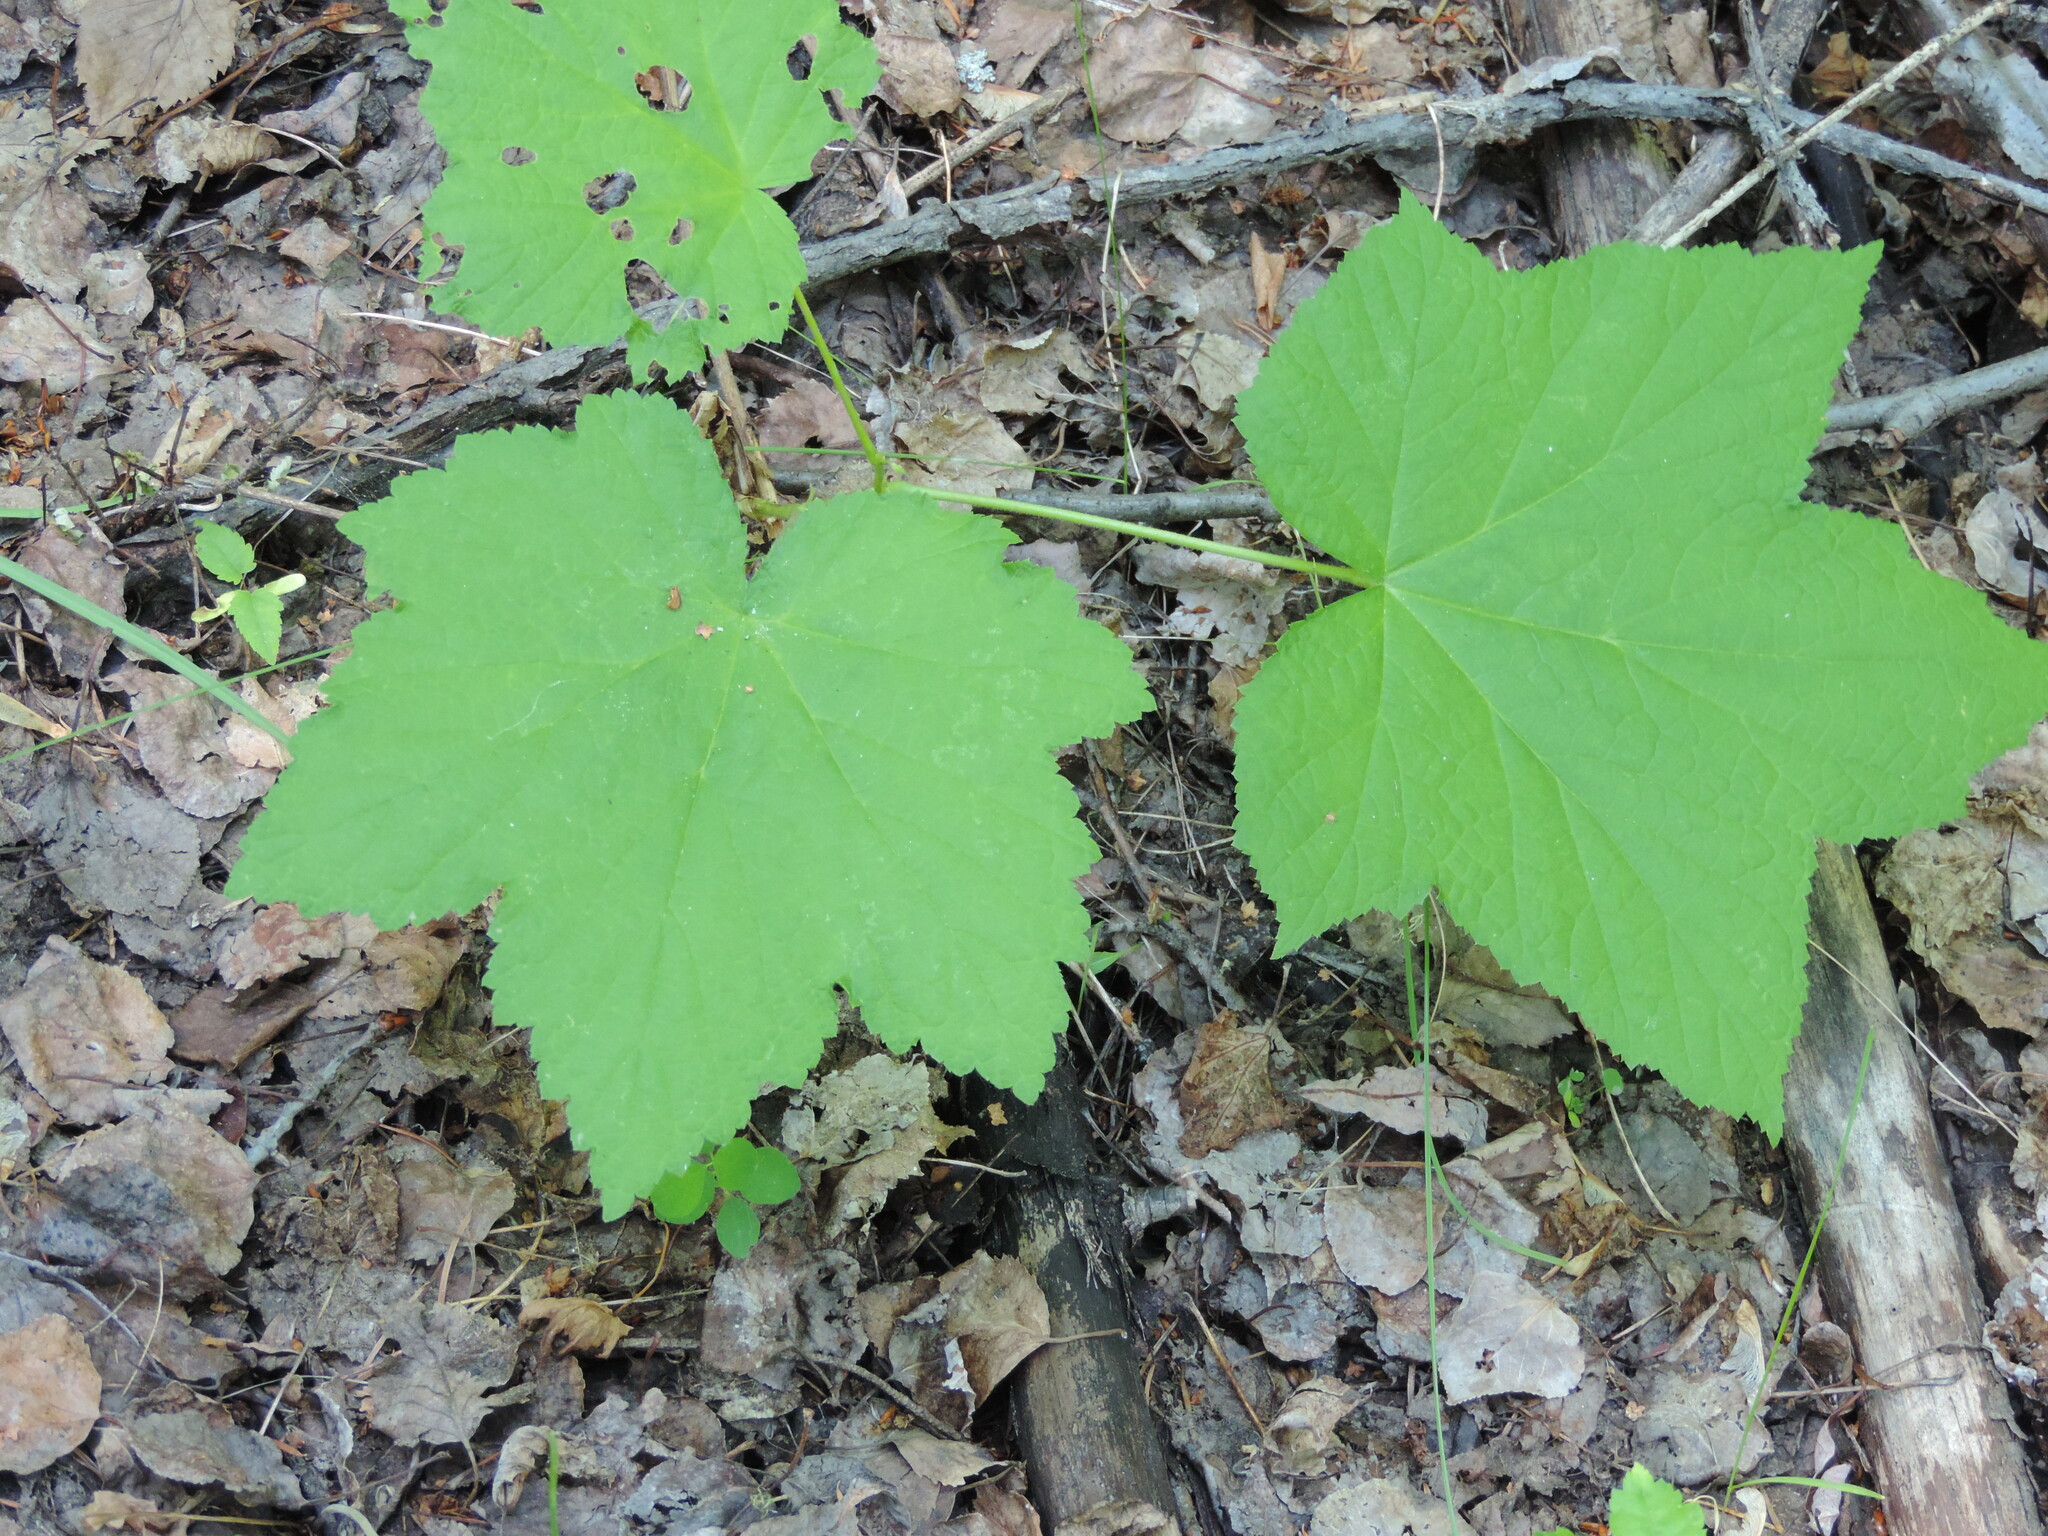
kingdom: Plantae
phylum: Tracheophyta
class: Magnoliopsida
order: Rosales
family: Rosaceae
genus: Rubus
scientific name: Rubus parviflorus
